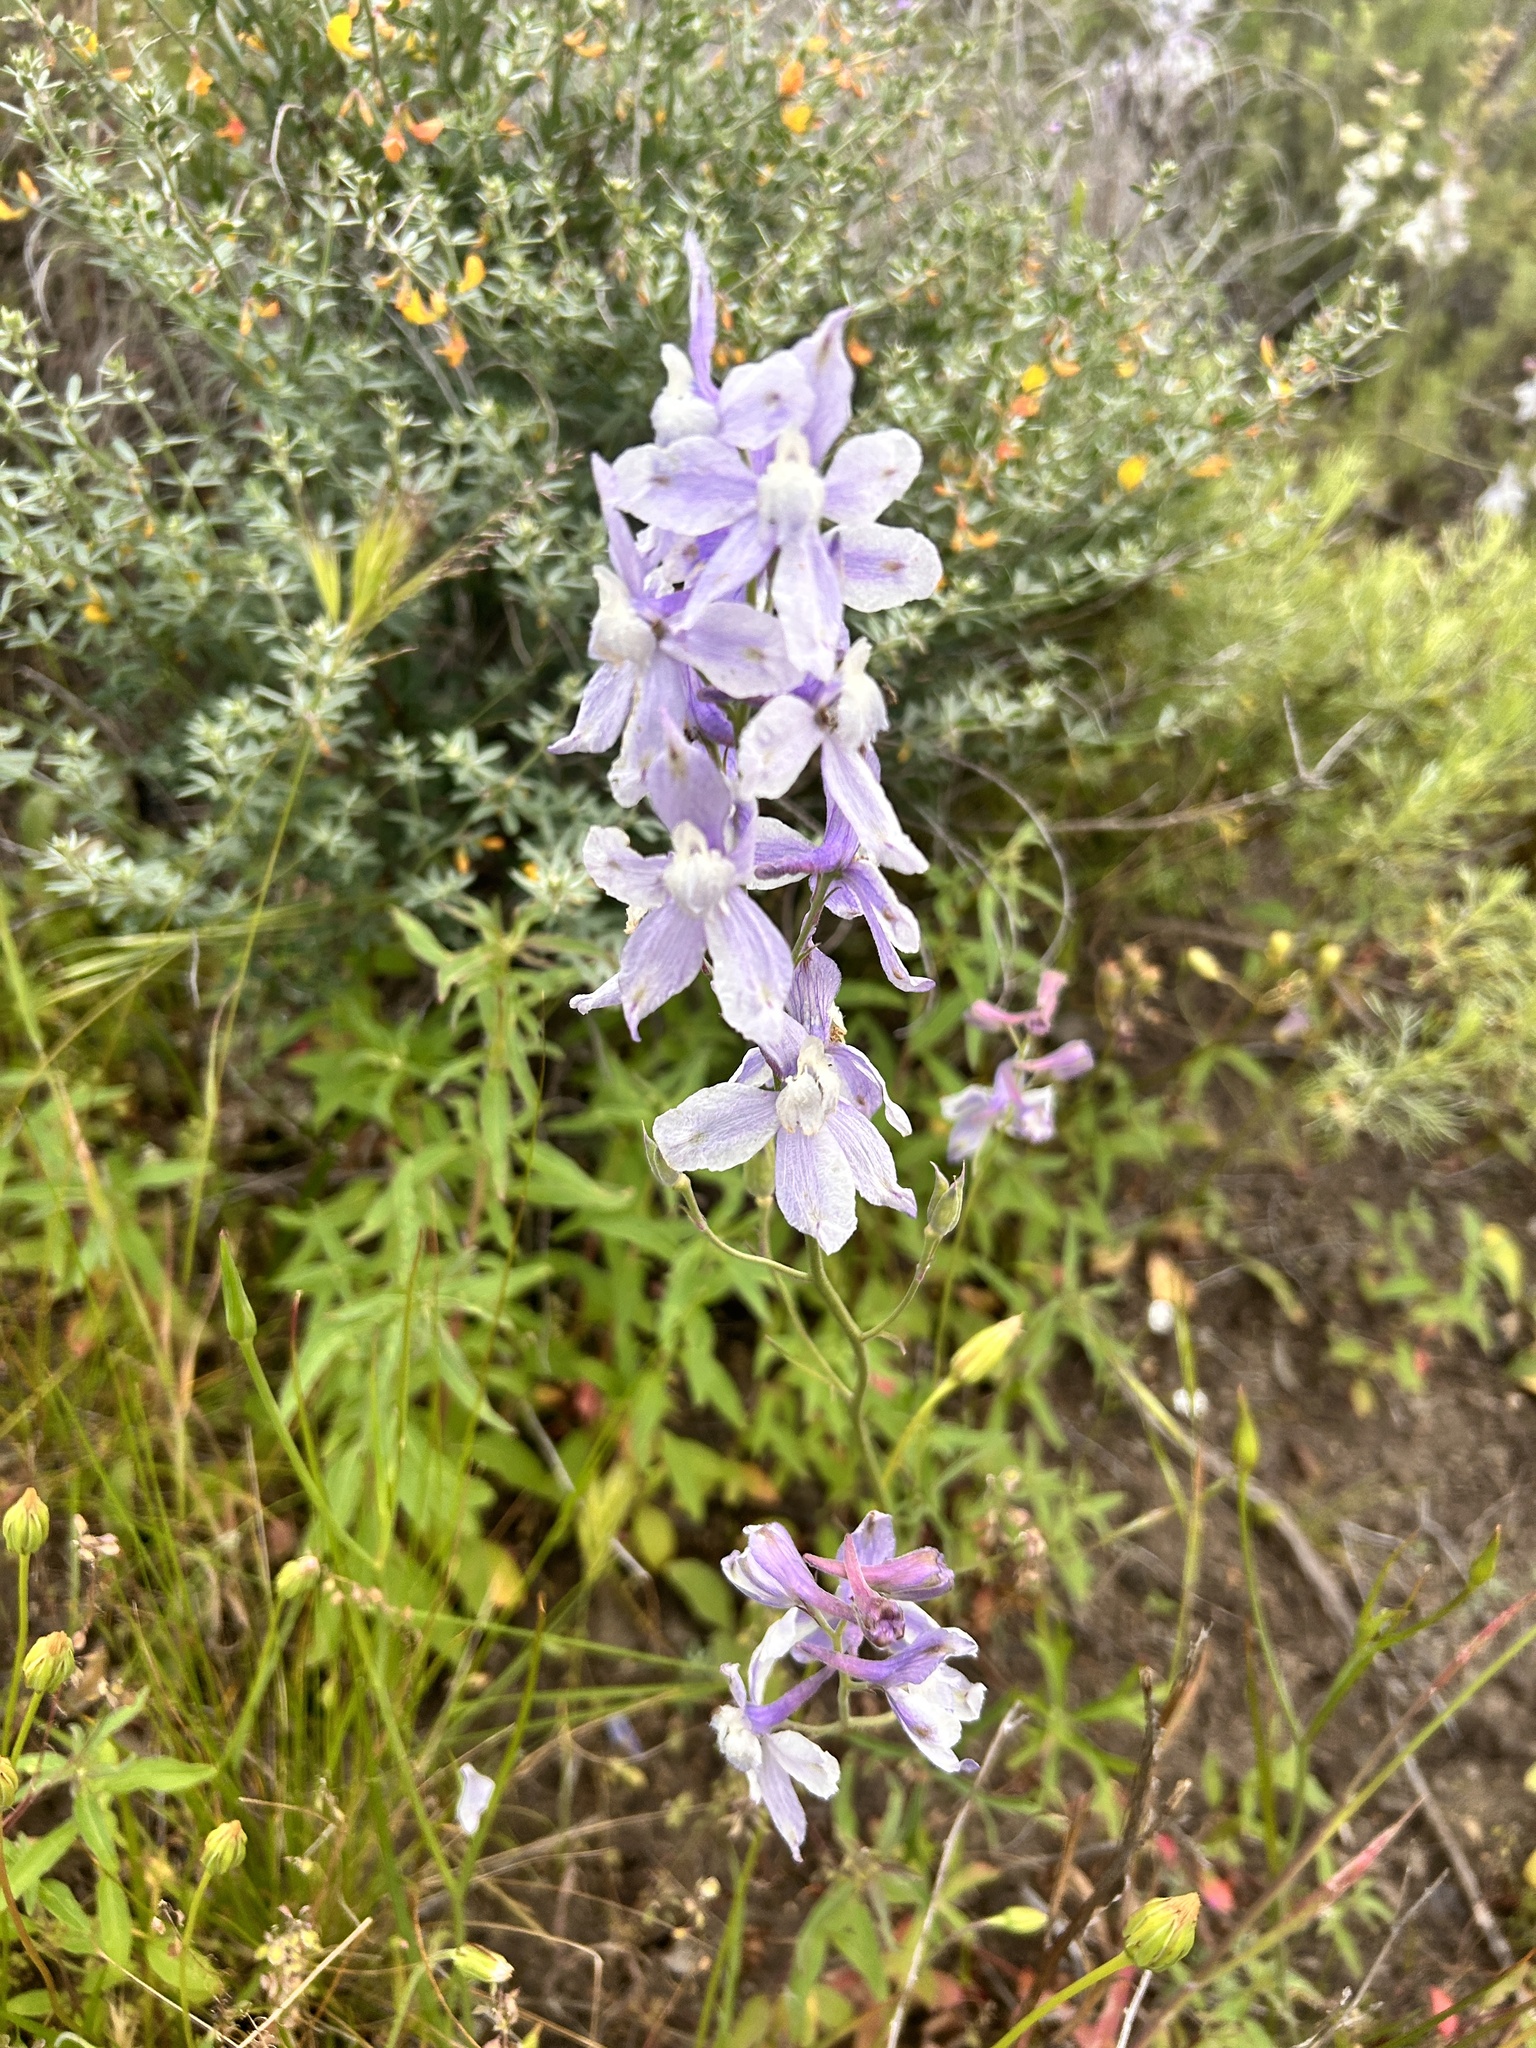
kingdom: Plantae
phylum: Tracheophyta
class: Magnoliopsida
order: Ranunculales
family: Ranunculaceae
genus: Delphinium
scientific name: Delphinium parryi
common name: Parry's larkspur
